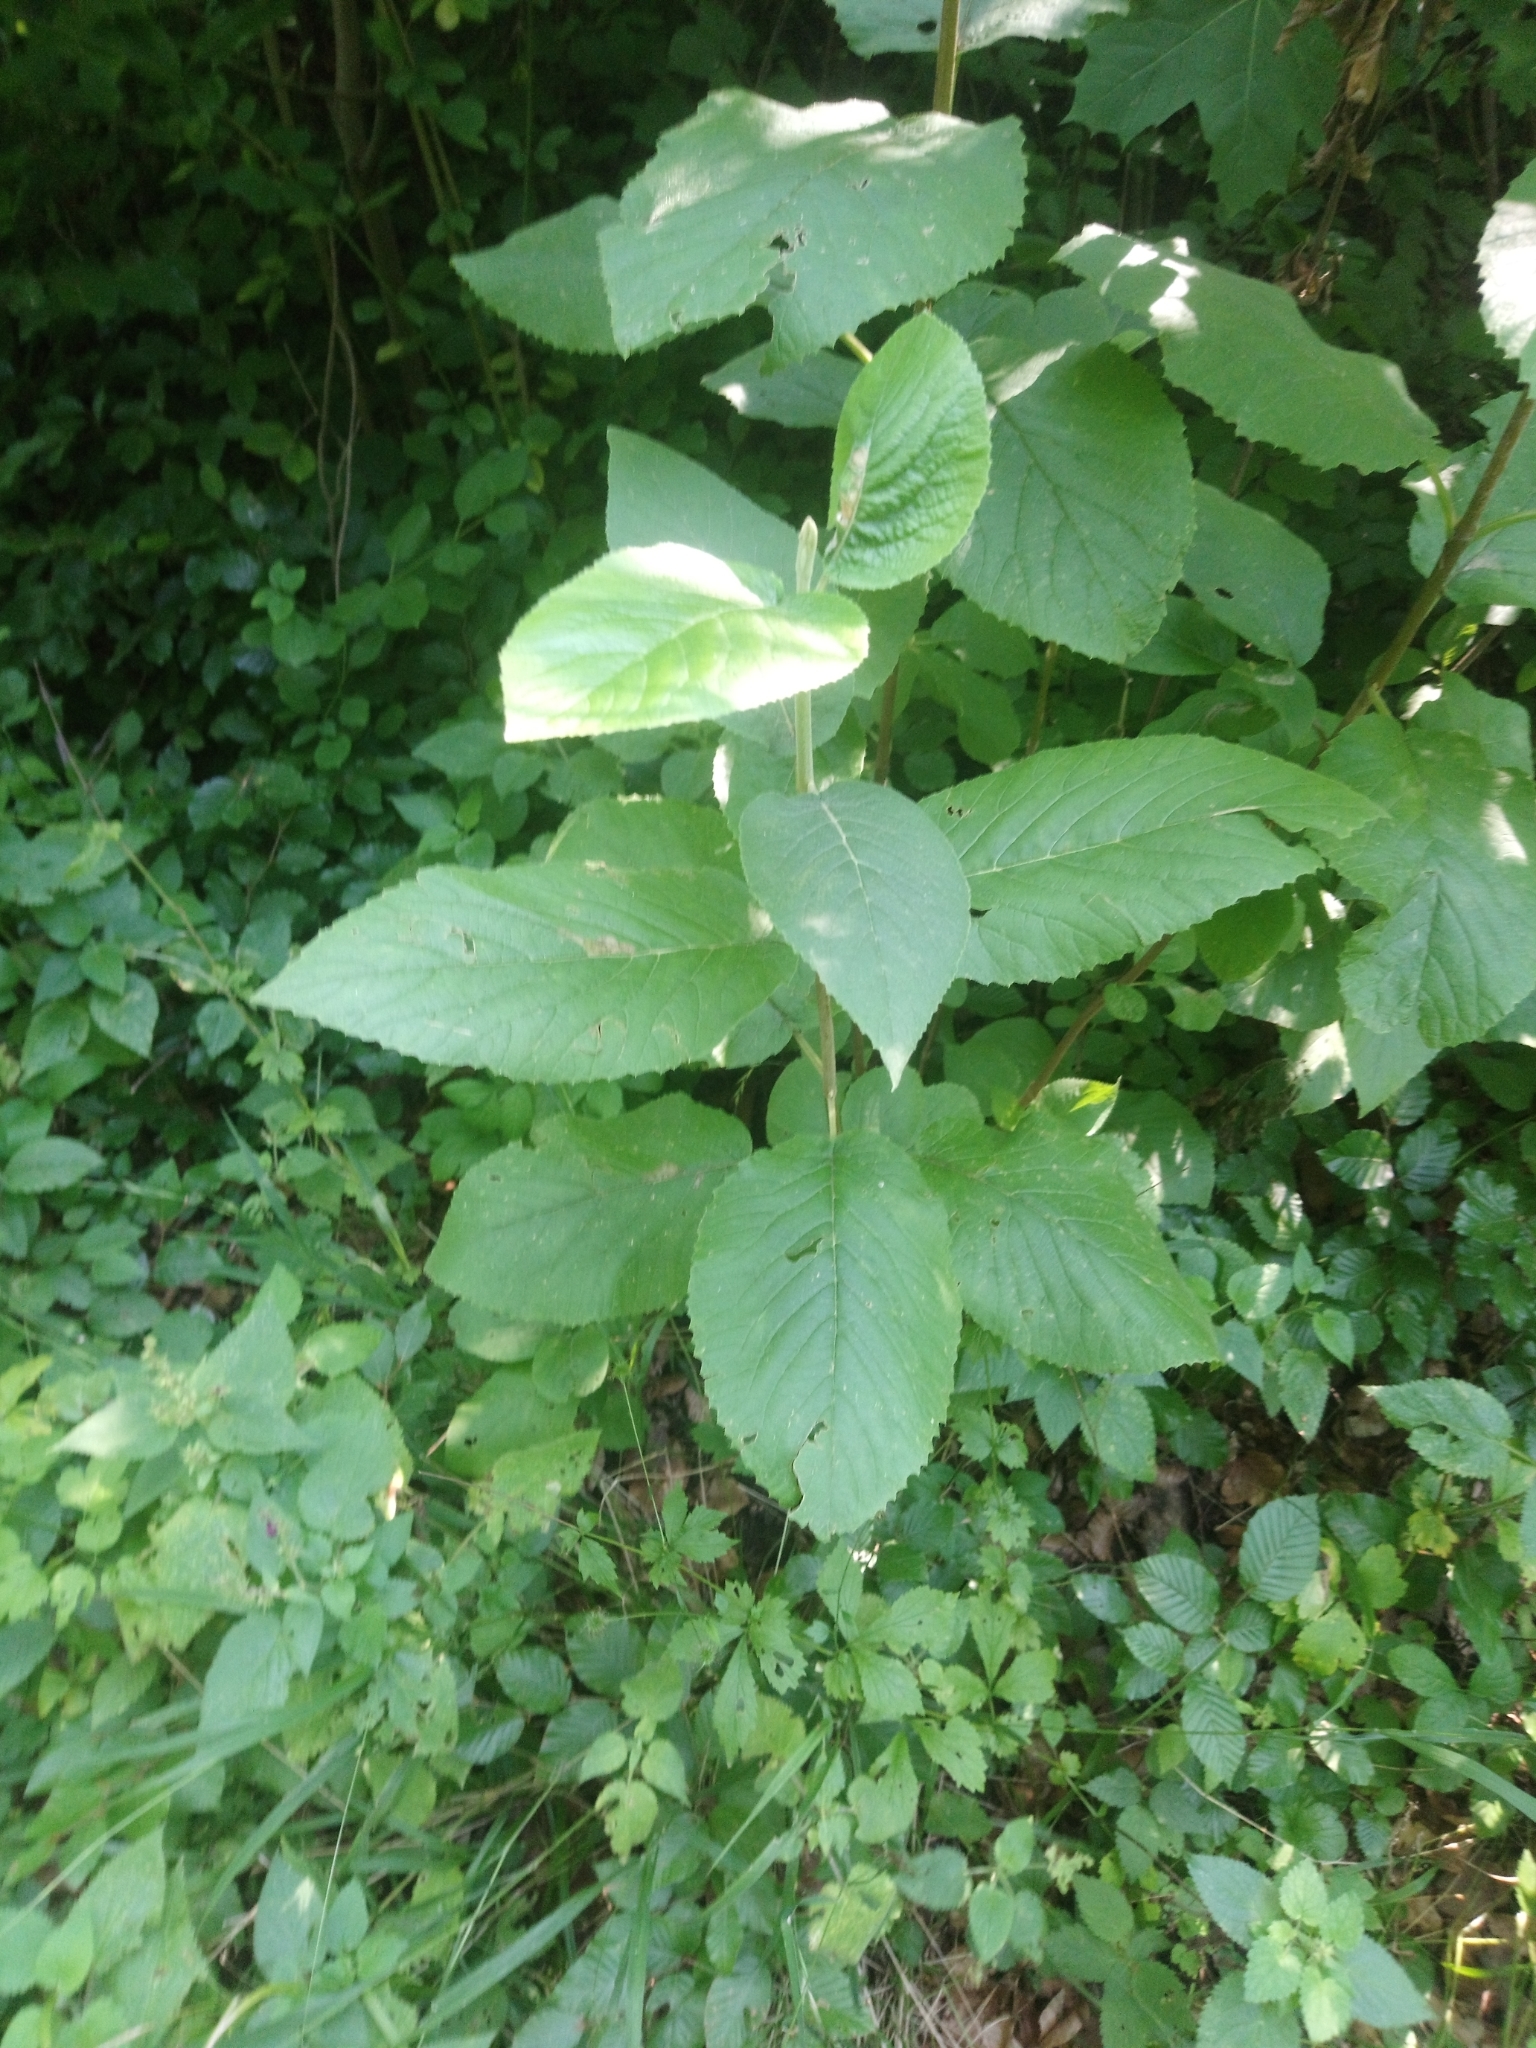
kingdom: Plantae
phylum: Tracheophyta
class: Magnoliopsida
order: Dipsacales
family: Viburnaceae
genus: Viburnum
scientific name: Viburnum lantana
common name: Wayfaring tree
